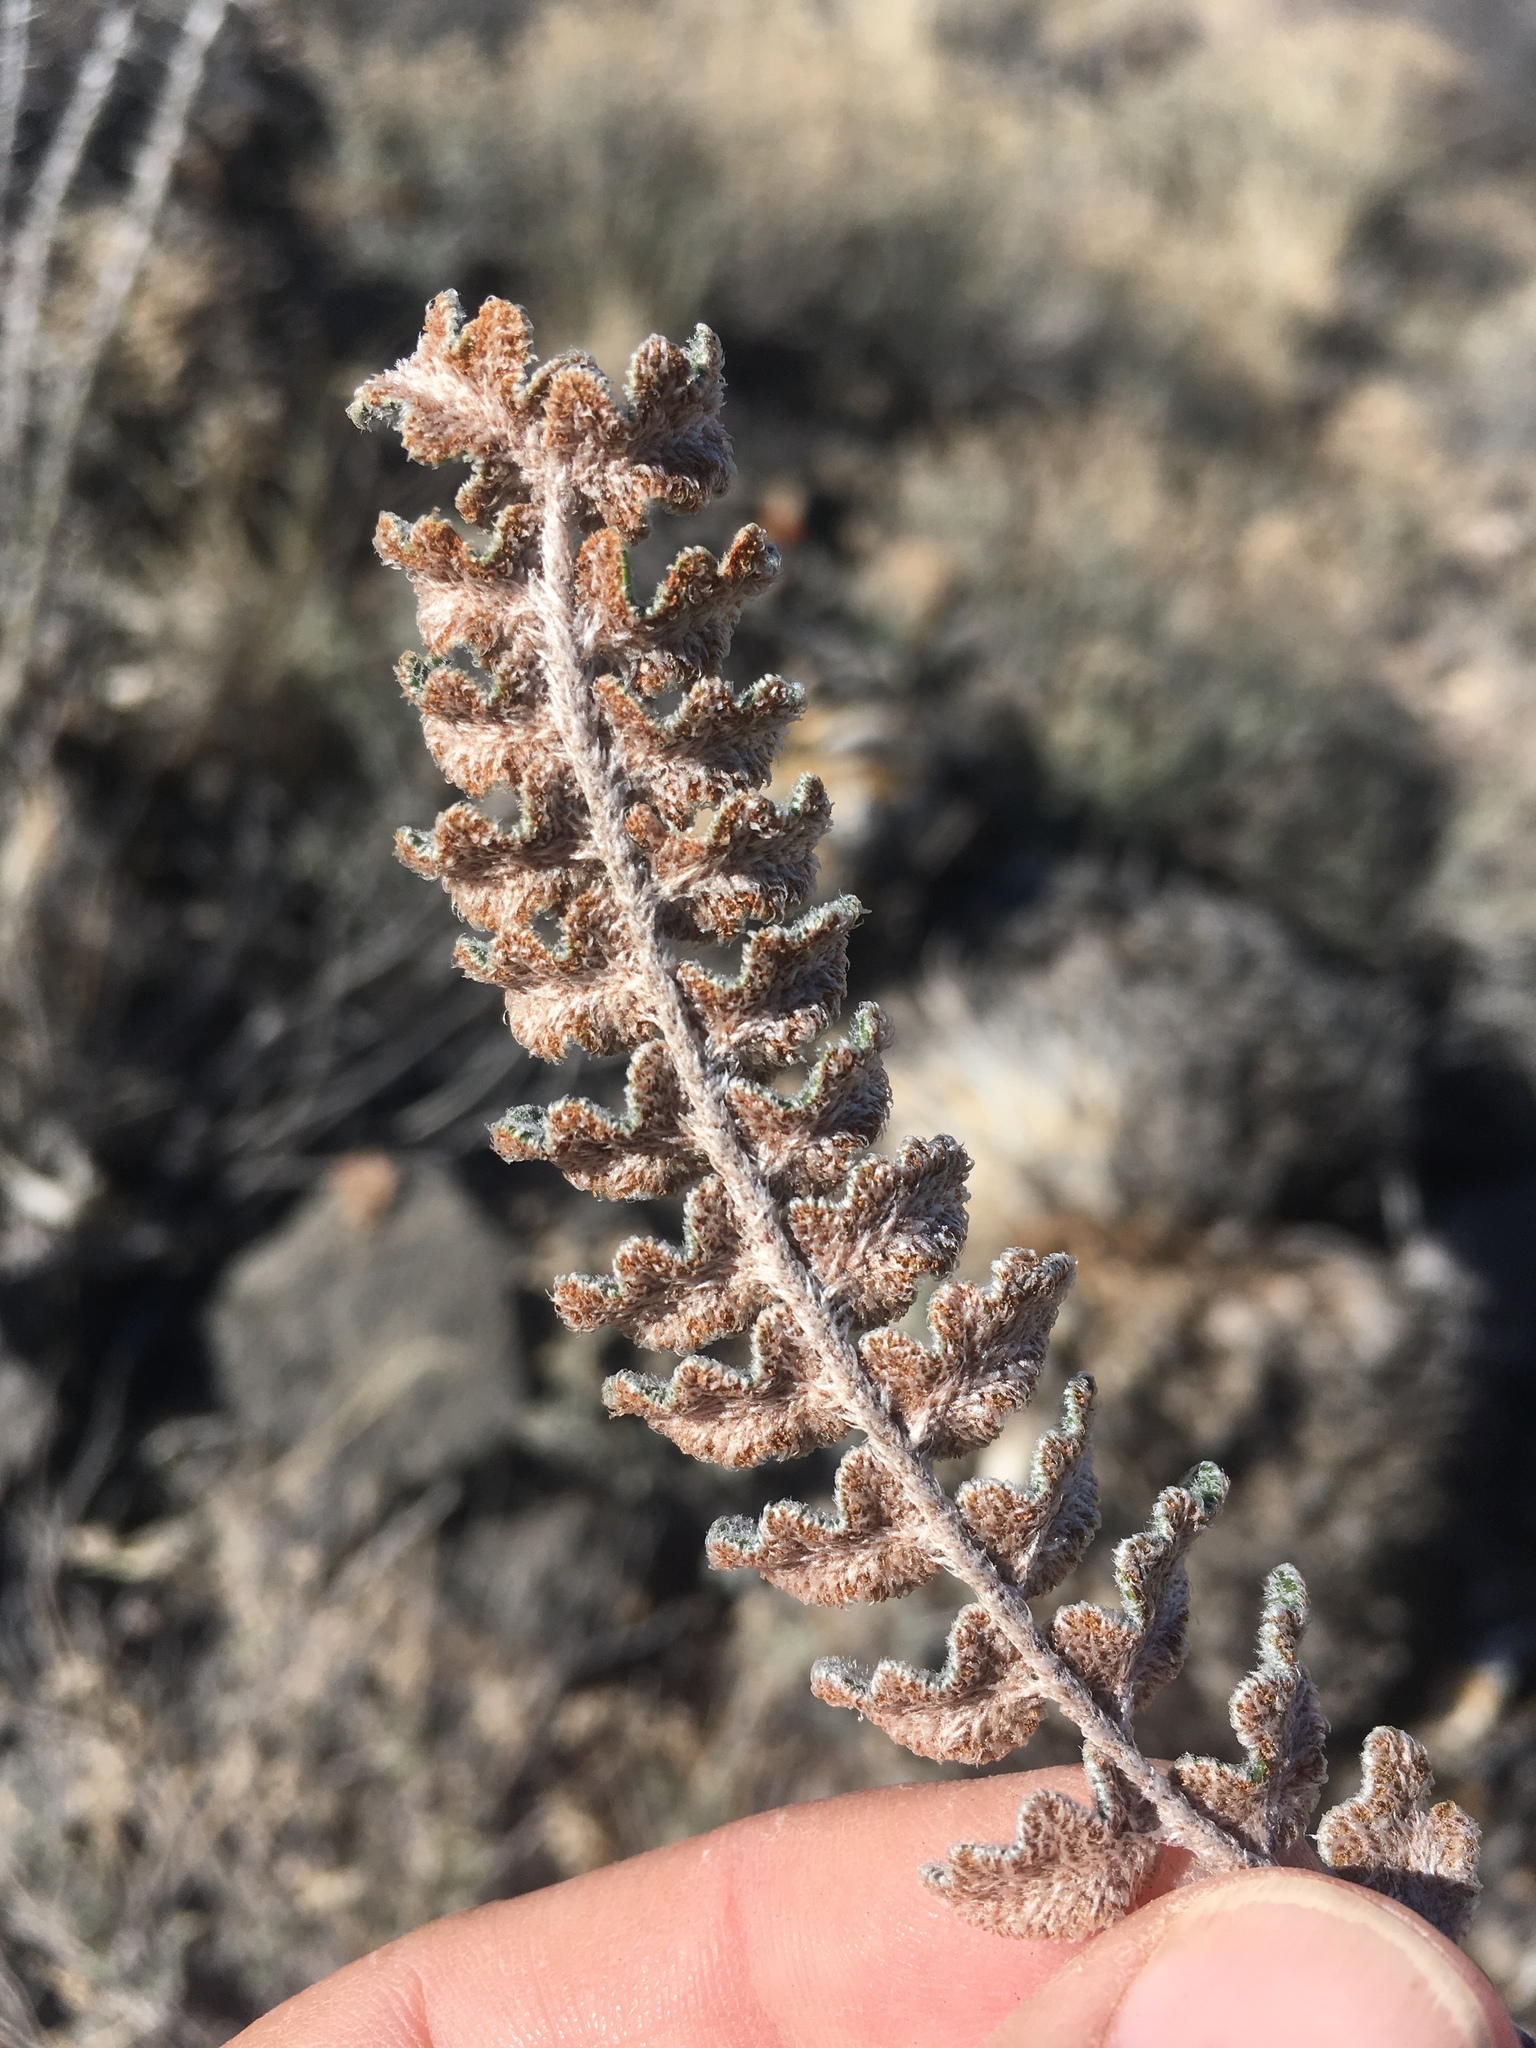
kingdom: Plantae
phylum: Tracheophyta
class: Polypodiopsida
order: Polypodiales
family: Pteridaceae
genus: Astrolepis
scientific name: Astrolepis integerrima
